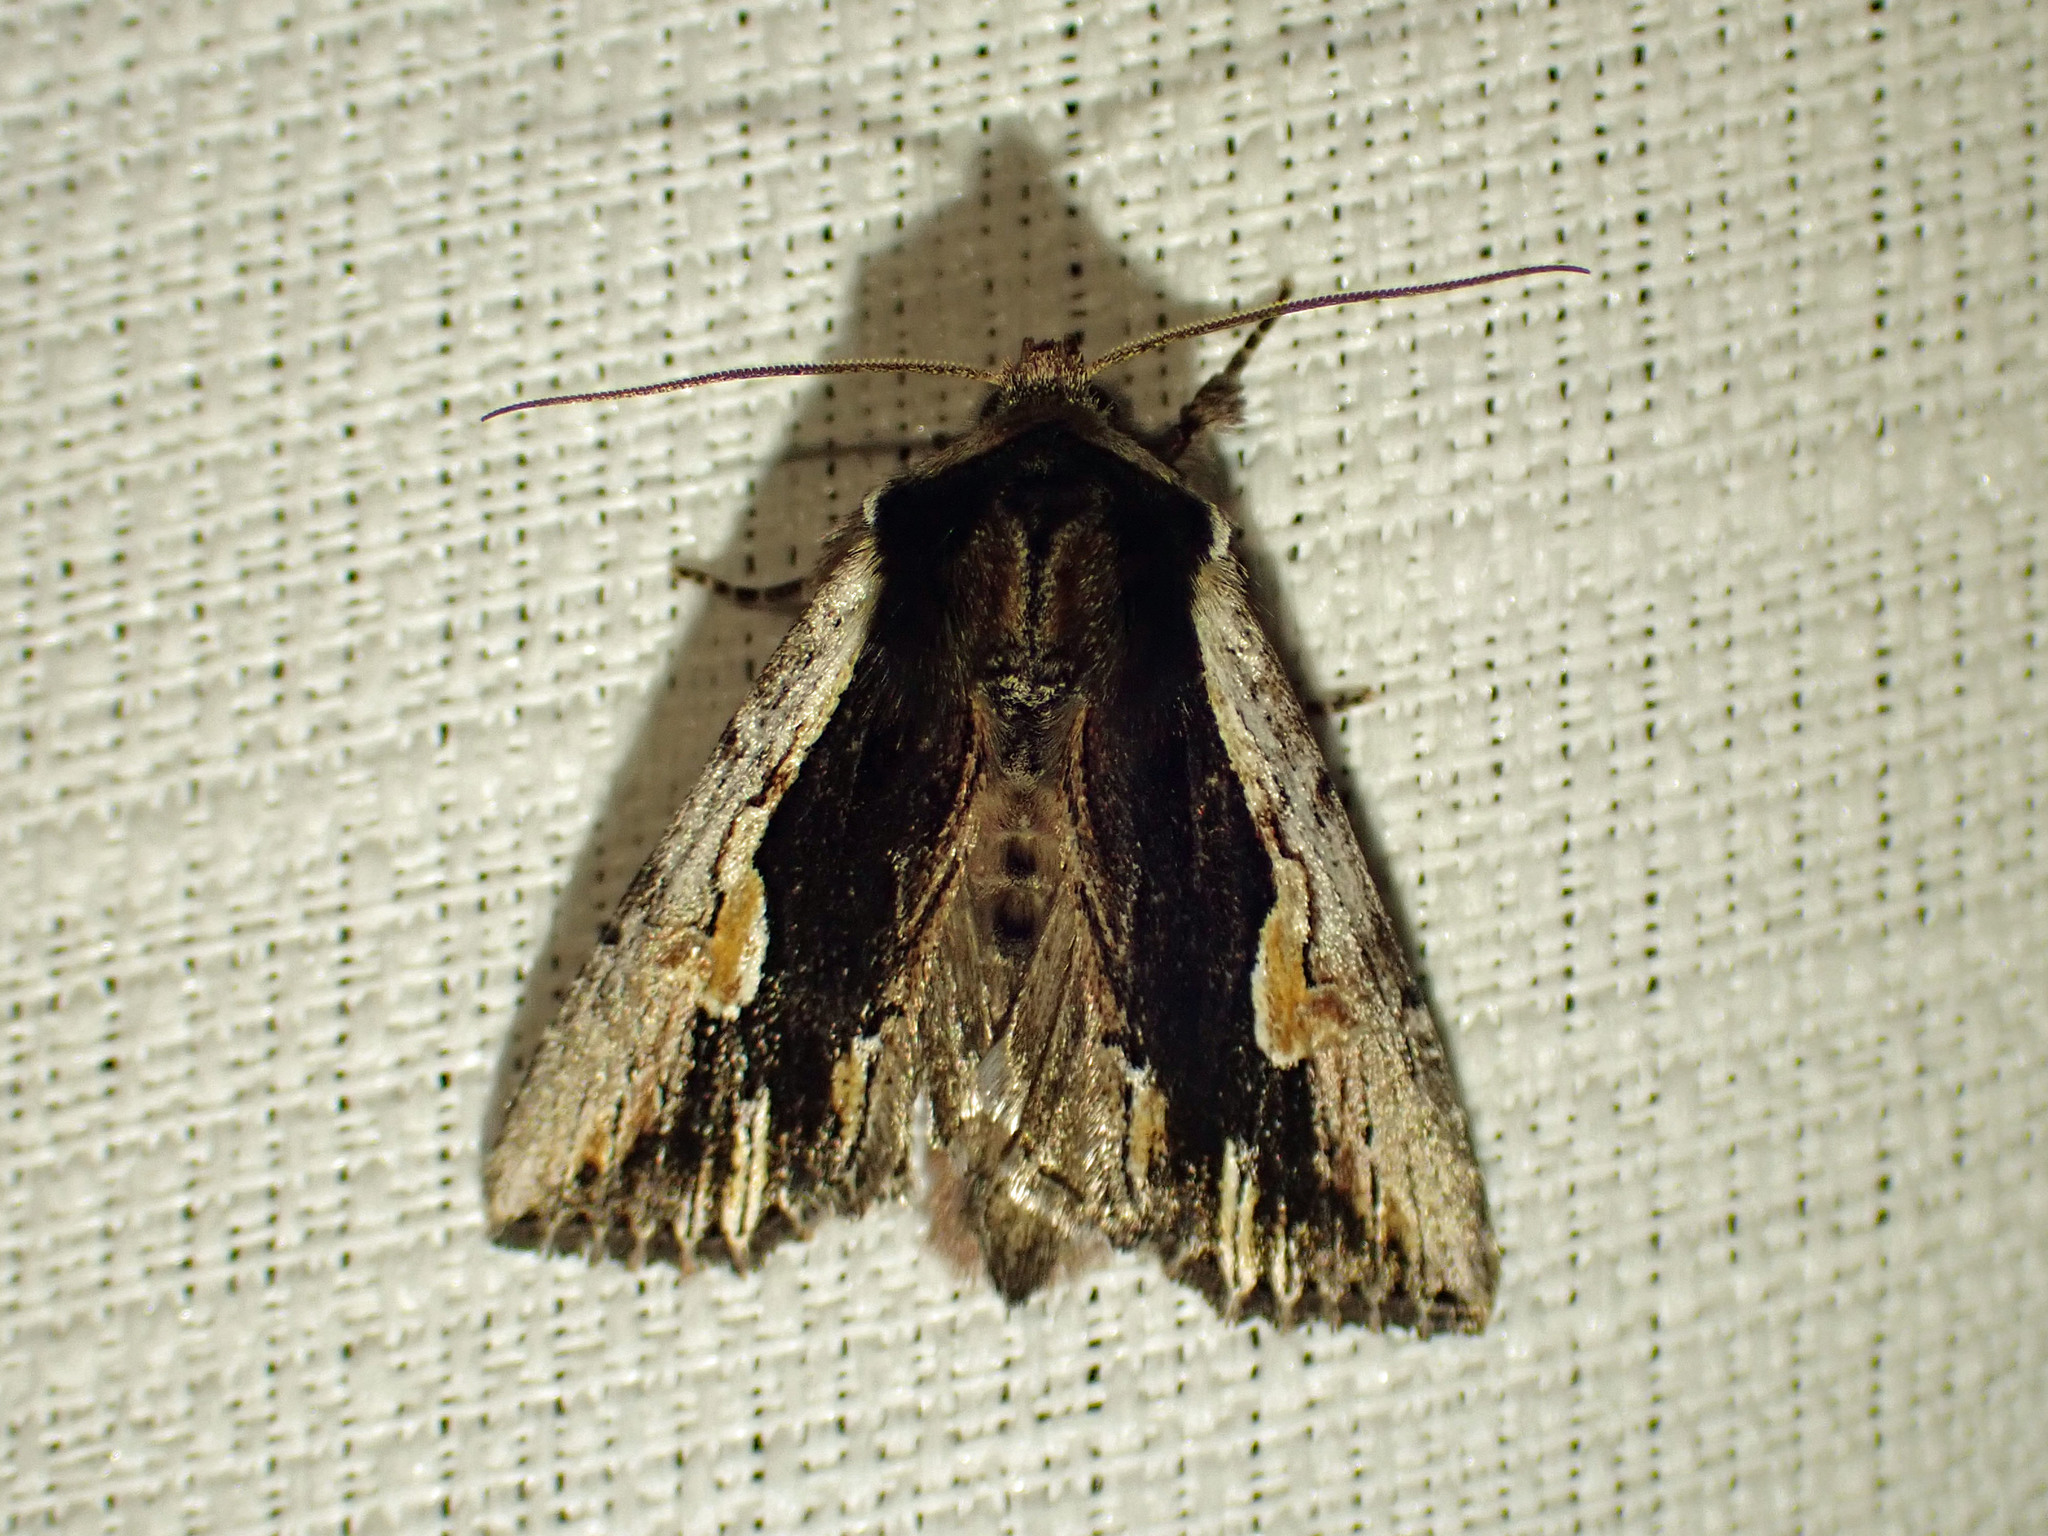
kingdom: Animalia
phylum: Arthropoda
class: Insecta
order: Lepidoptera
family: Noctuidae
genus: Achatia
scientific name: Achatia evicta
